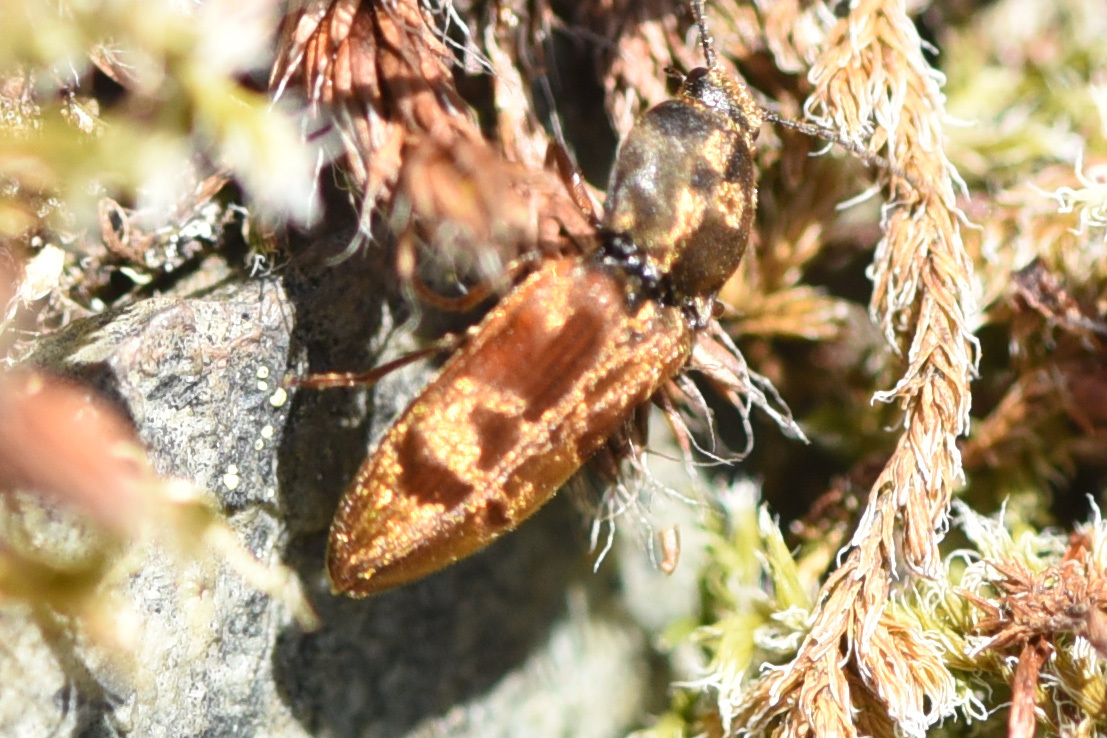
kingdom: Animalia
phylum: Arthropoda
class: Insecta
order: Coleoptera
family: Elateridae
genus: Prosternon
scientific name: Prosternon bombycinum
